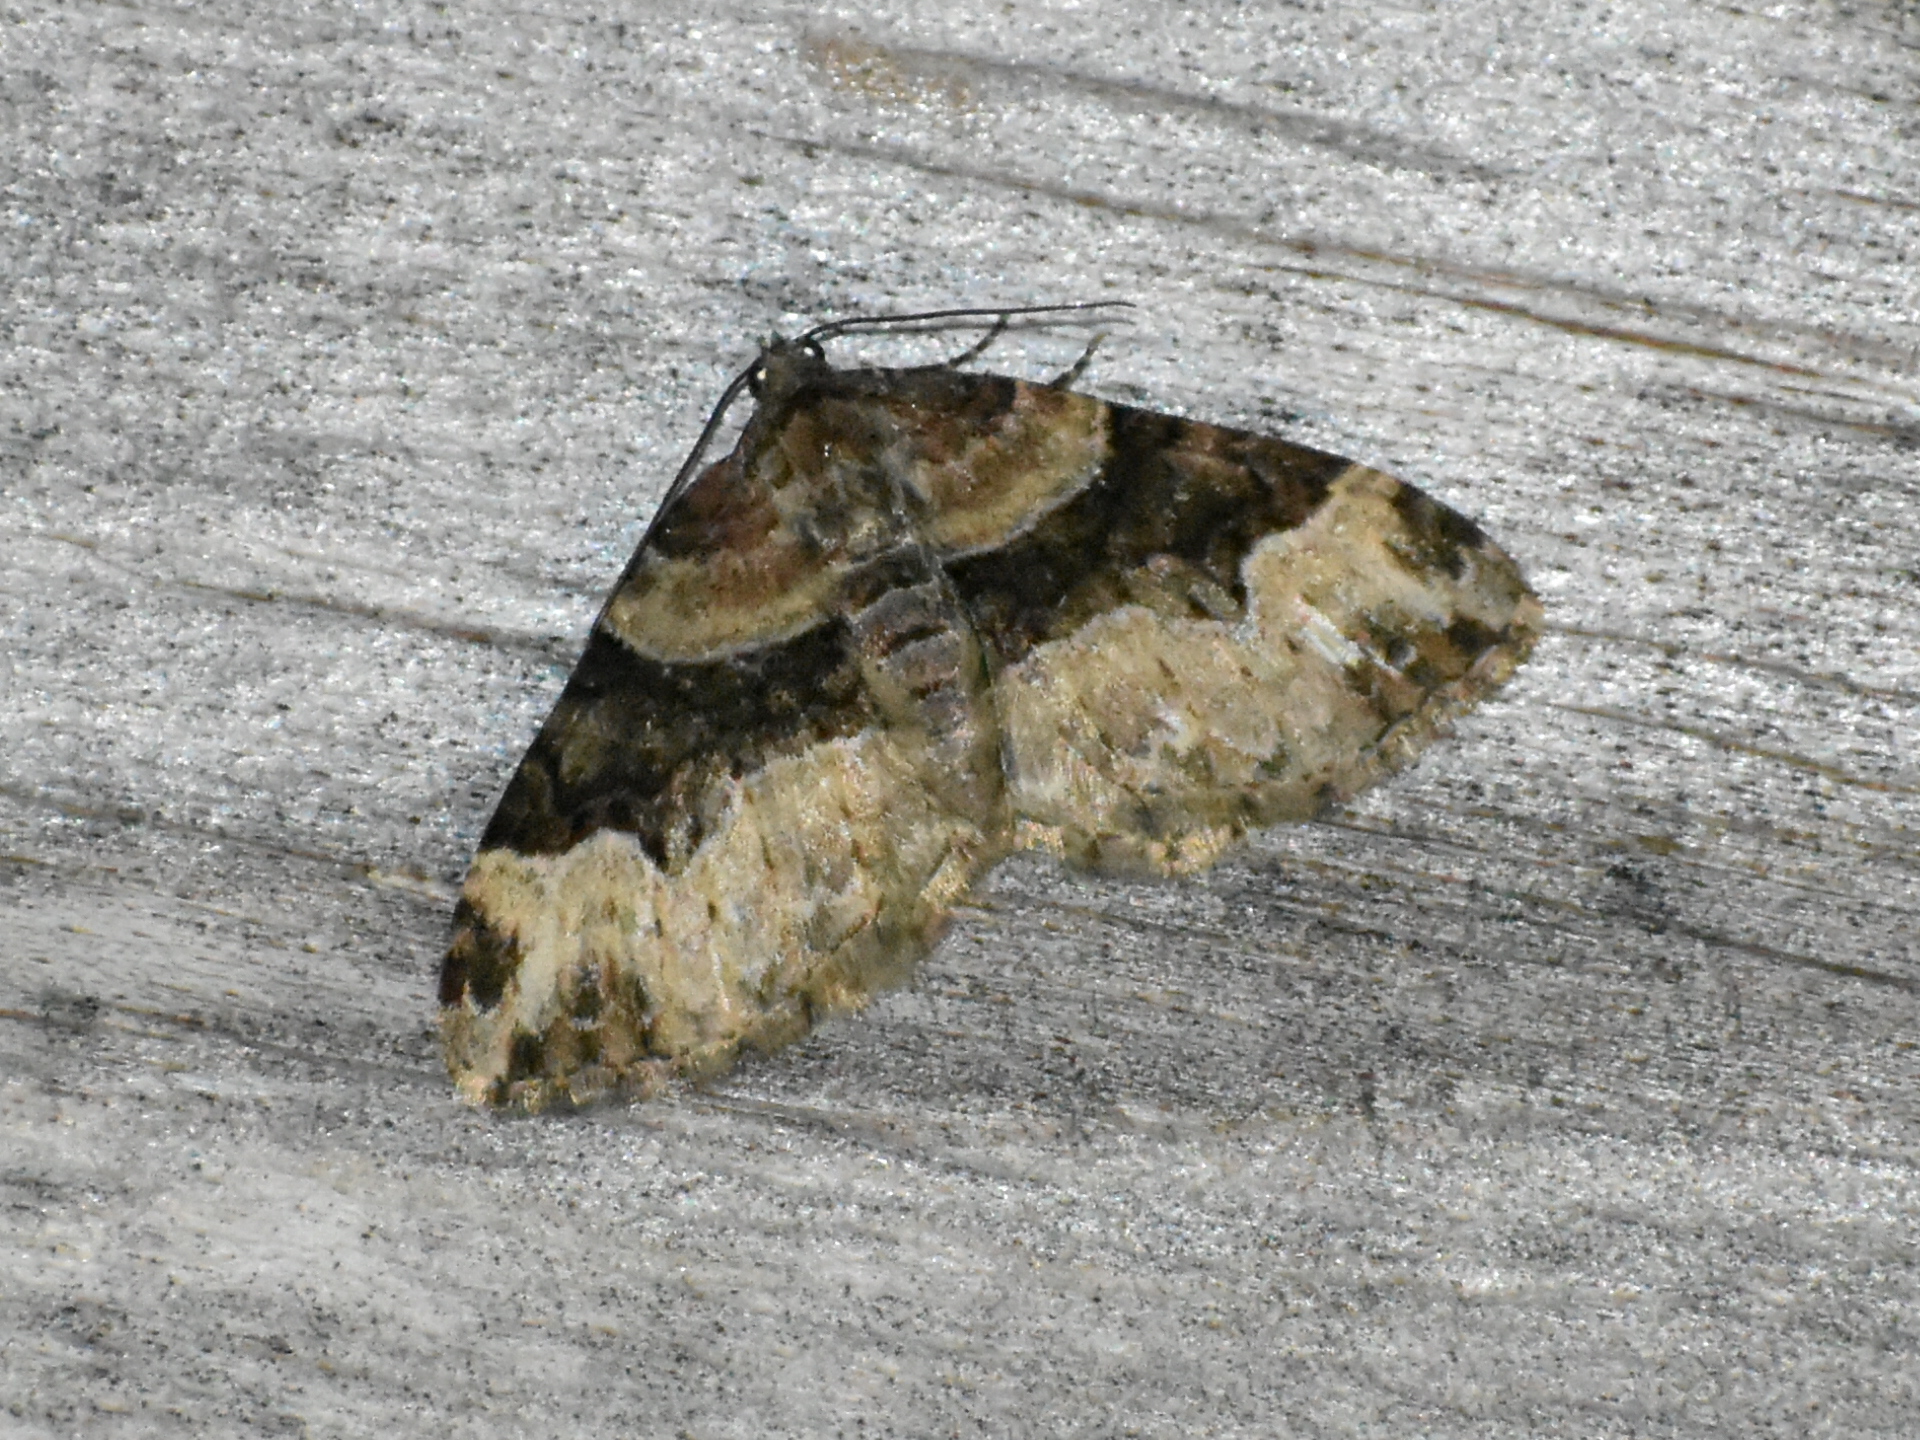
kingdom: Animalia
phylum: Arthropoda
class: Insecta
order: Lepidoptera
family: Geometridae
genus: Xanthorhoe
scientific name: Xanthorhoe lacustrata
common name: Toothed brown carpet
